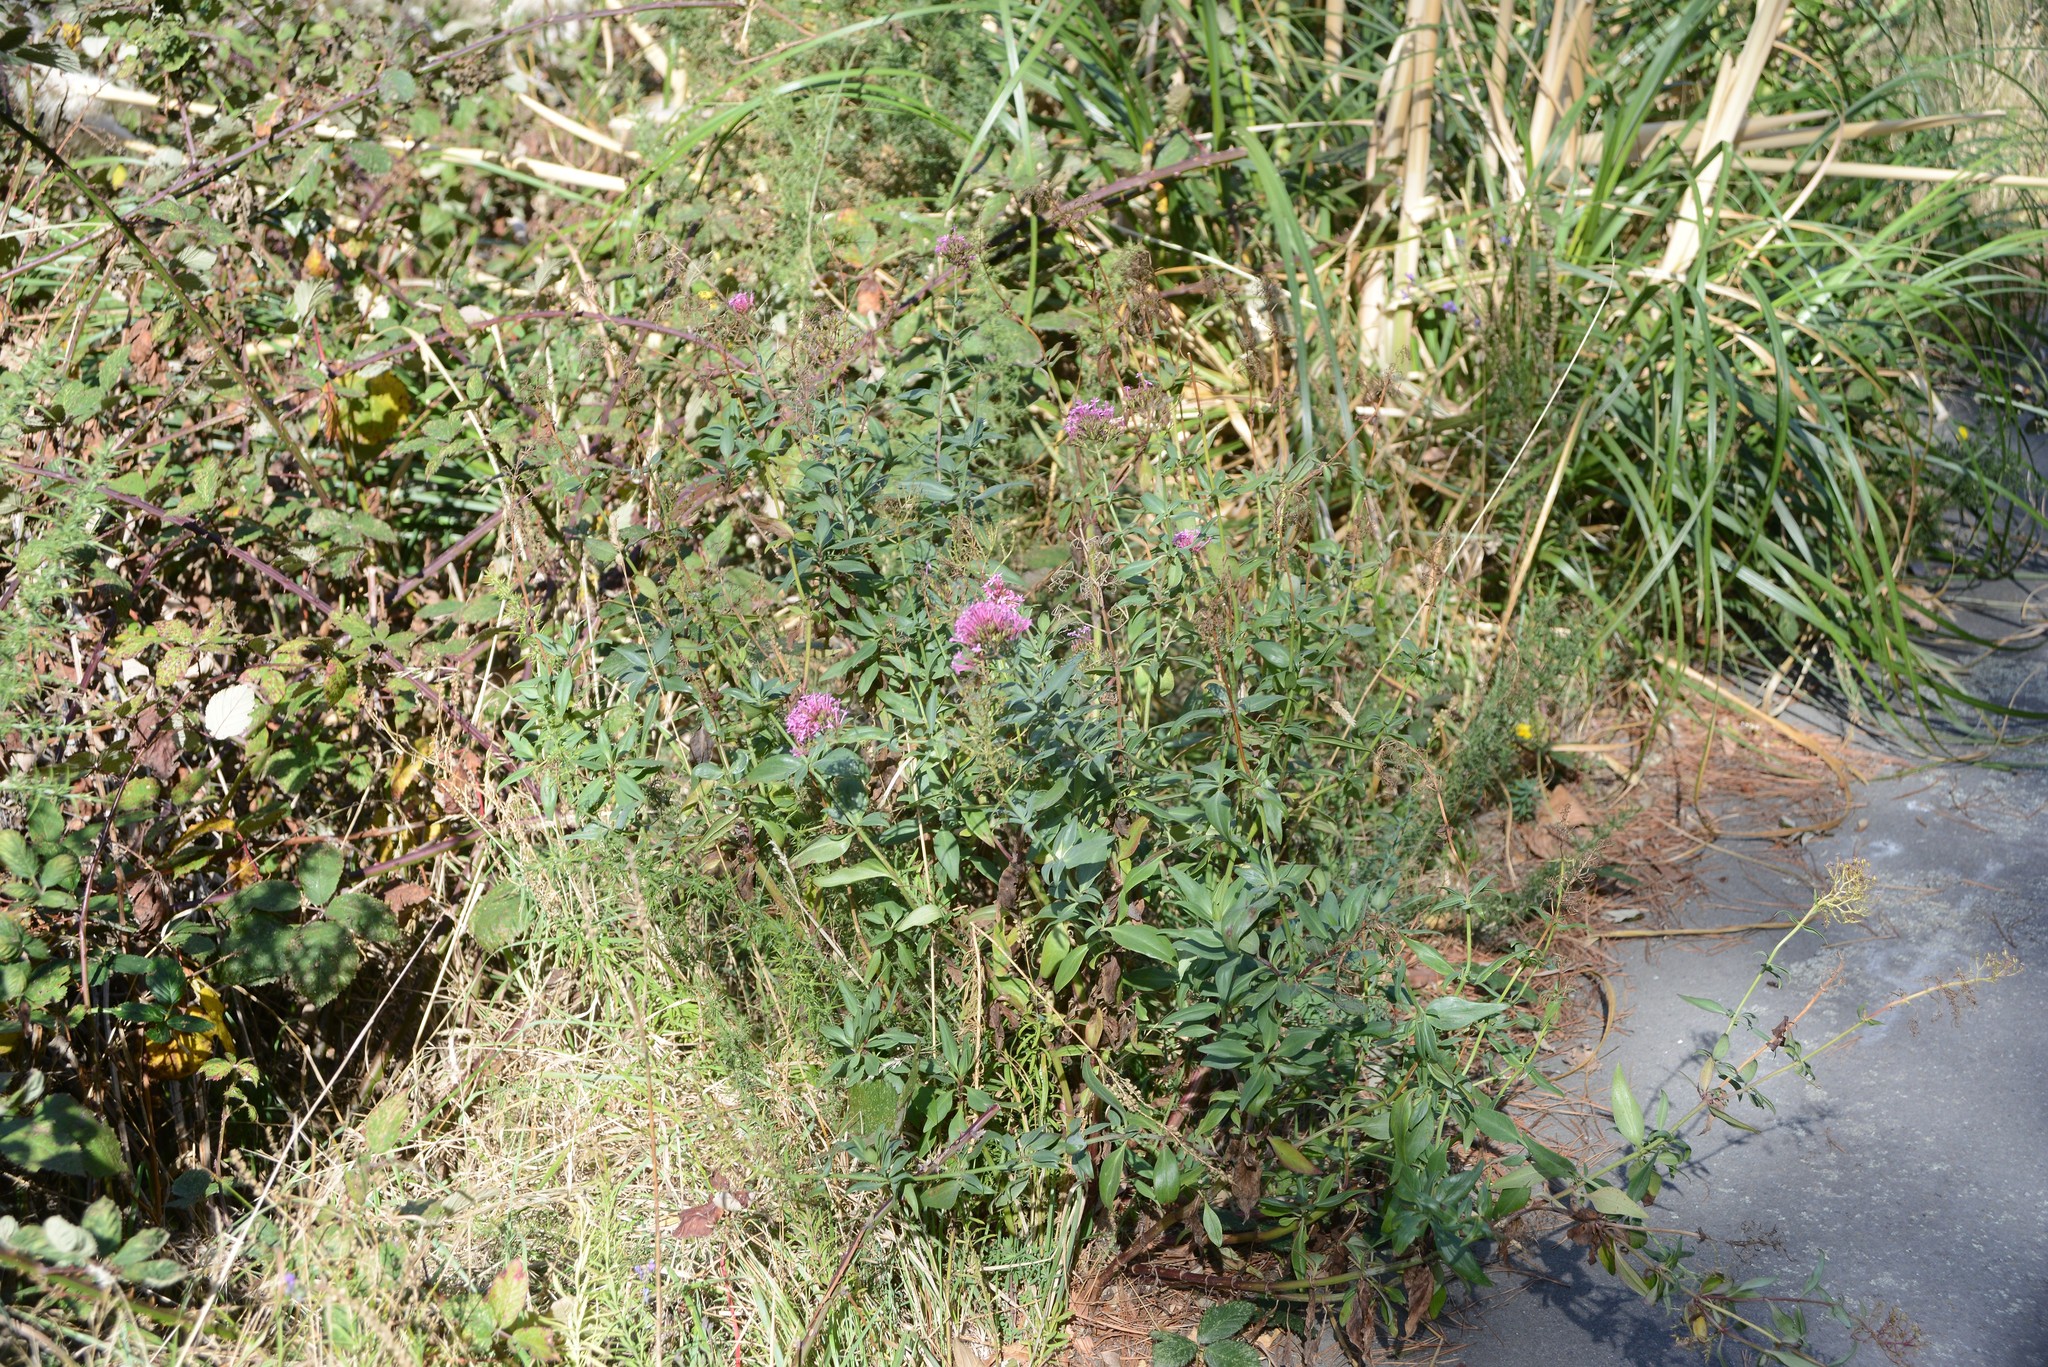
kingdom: Plantae
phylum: Tracheophyta
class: Magnoliopsida
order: Dipsacales
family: Caprifoliaceae
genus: Centranthus
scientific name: Centranthus ruber
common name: Red valerian
